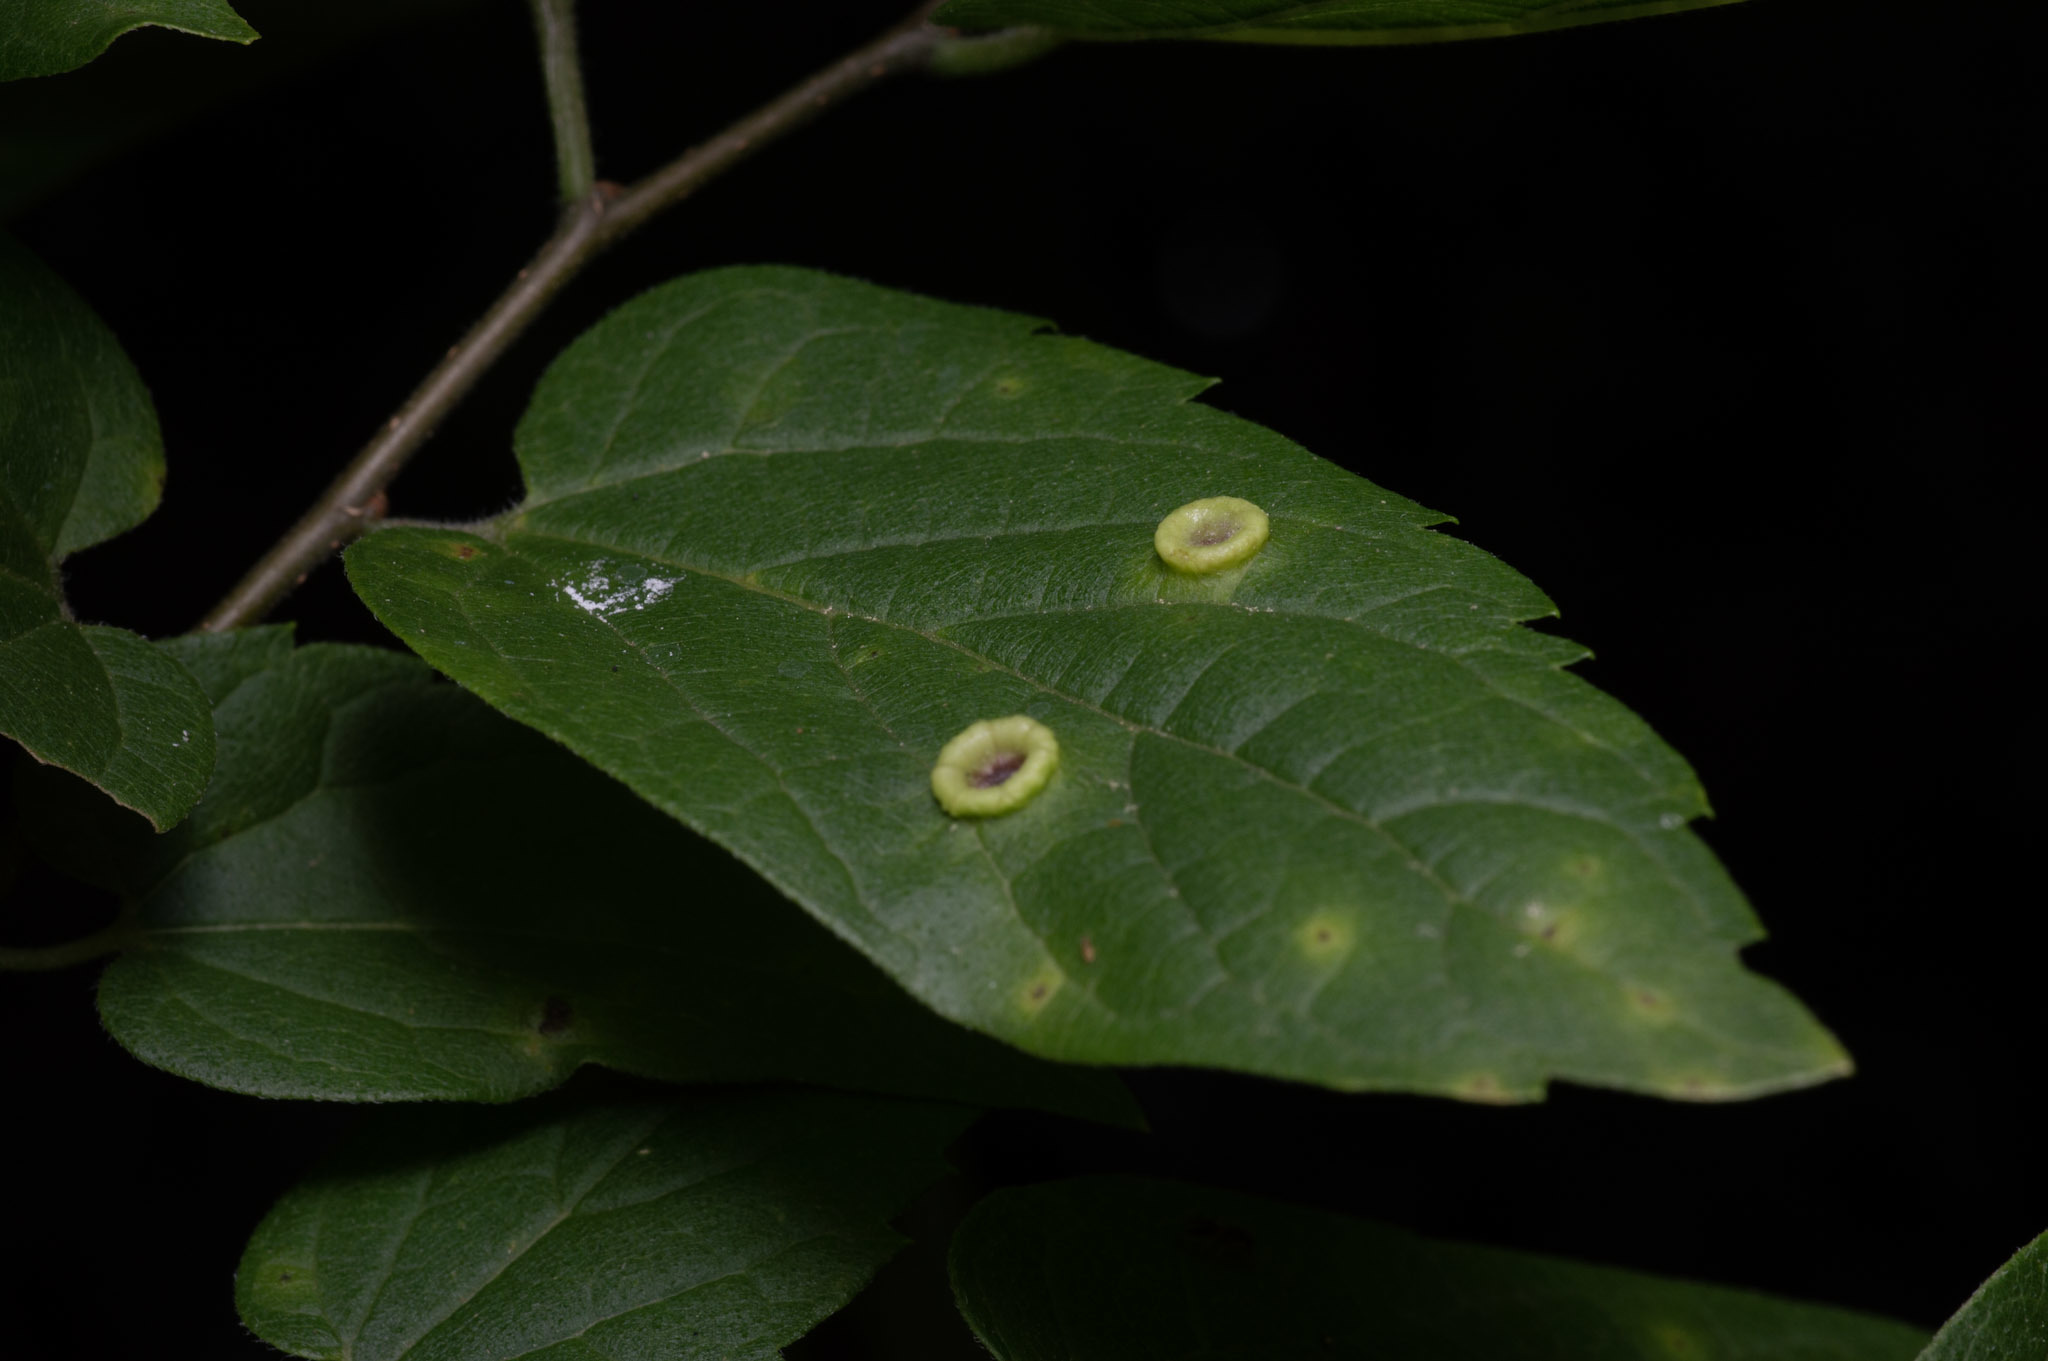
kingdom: Animalia
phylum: Arthropoda
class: Insecta
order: Hemiptera
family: Aphalaridae
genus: Pachypsylla
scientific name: Pachypsylla celtidismamma
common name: Hackberry nipplegall psyllid
